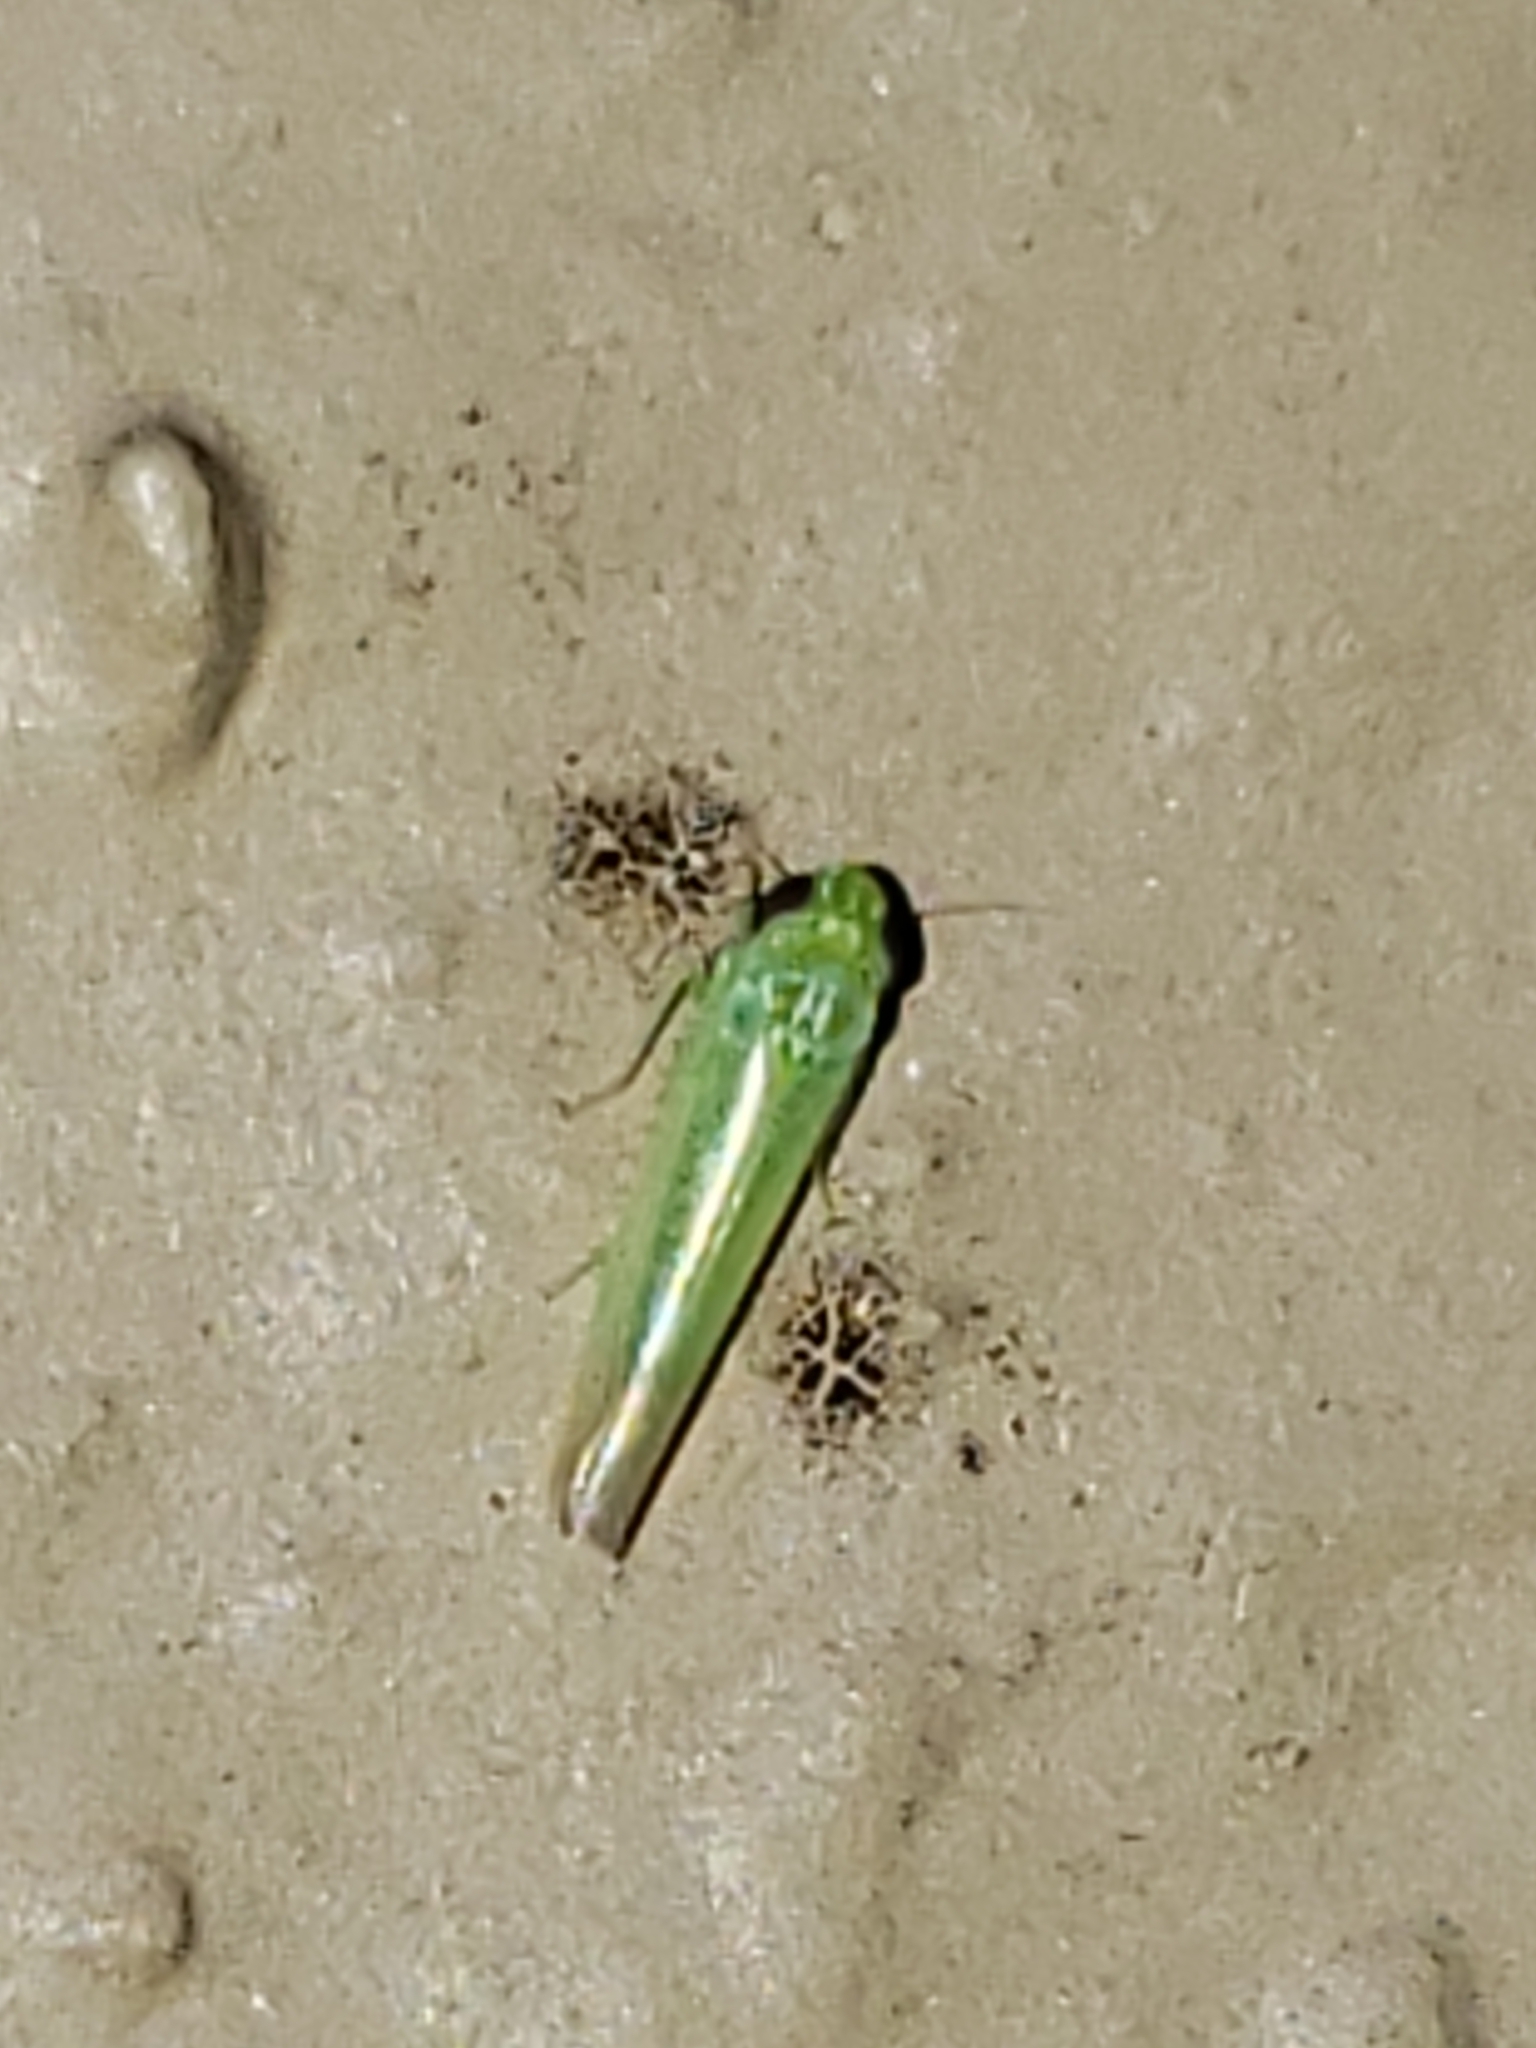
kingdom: Animalia
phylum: Arthropoda
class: Insecta
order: Hemiptera
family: Cicadellidae
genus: Empoasca
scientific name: Empoasca fabae
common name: Potato leafhopper
